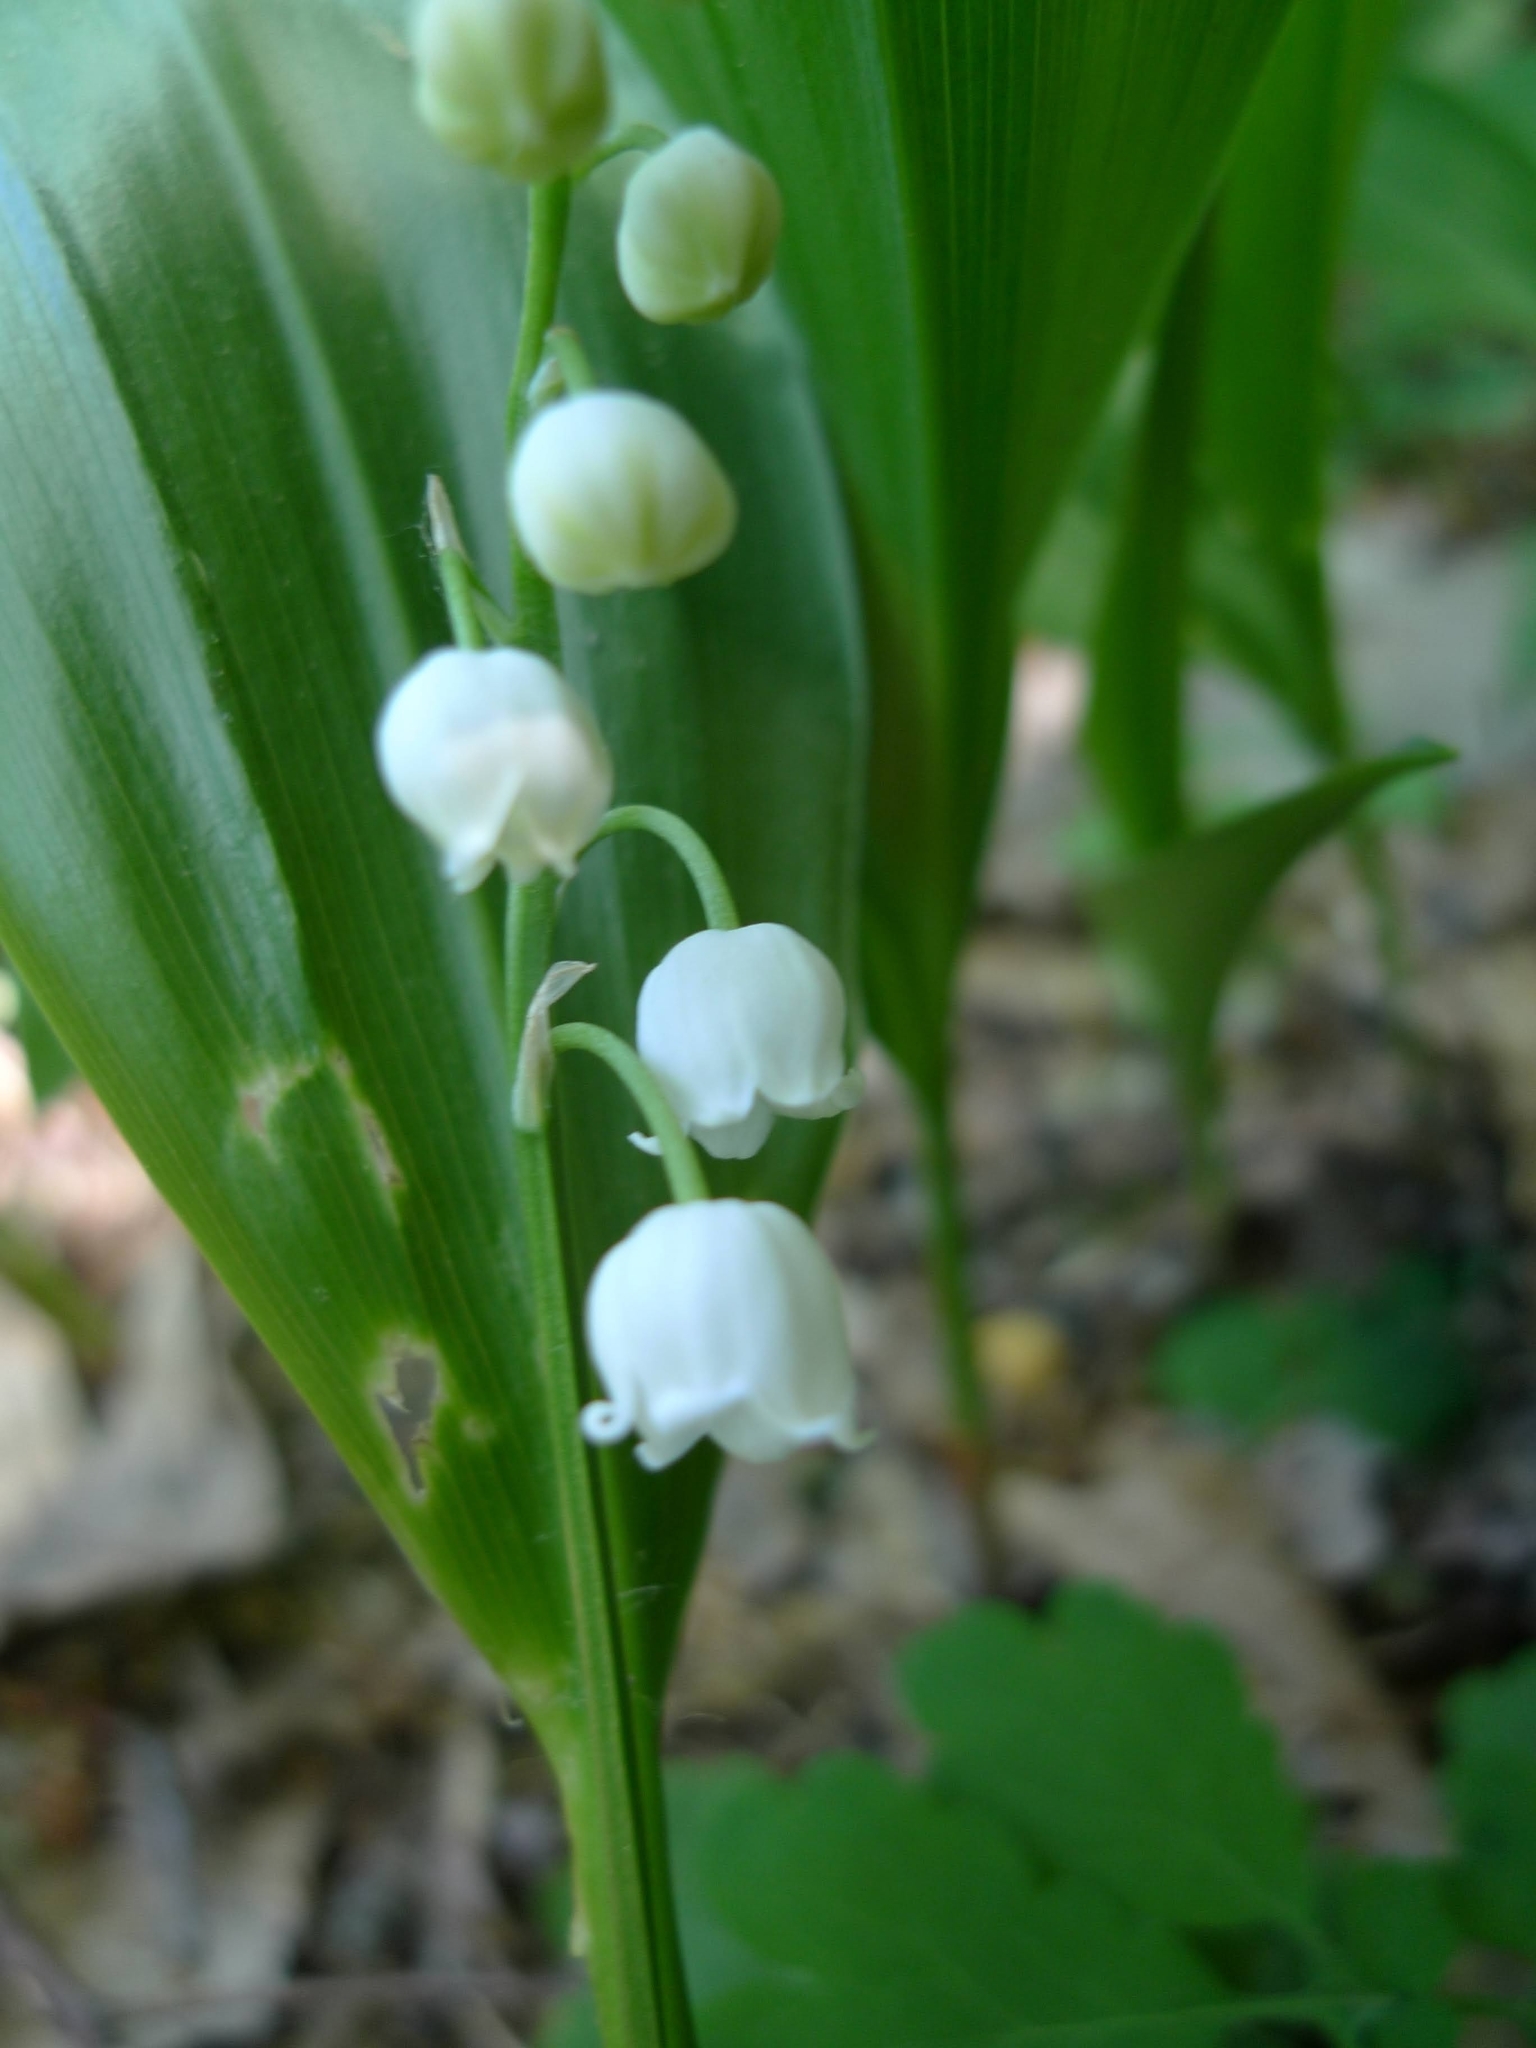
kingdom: Plantae
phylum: Tracheophyta
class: Liliopsida
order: Asparagales
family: Asparagaceae
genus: Convallaria
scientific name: Convallaria majalis
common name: Lily-of-the-valley
